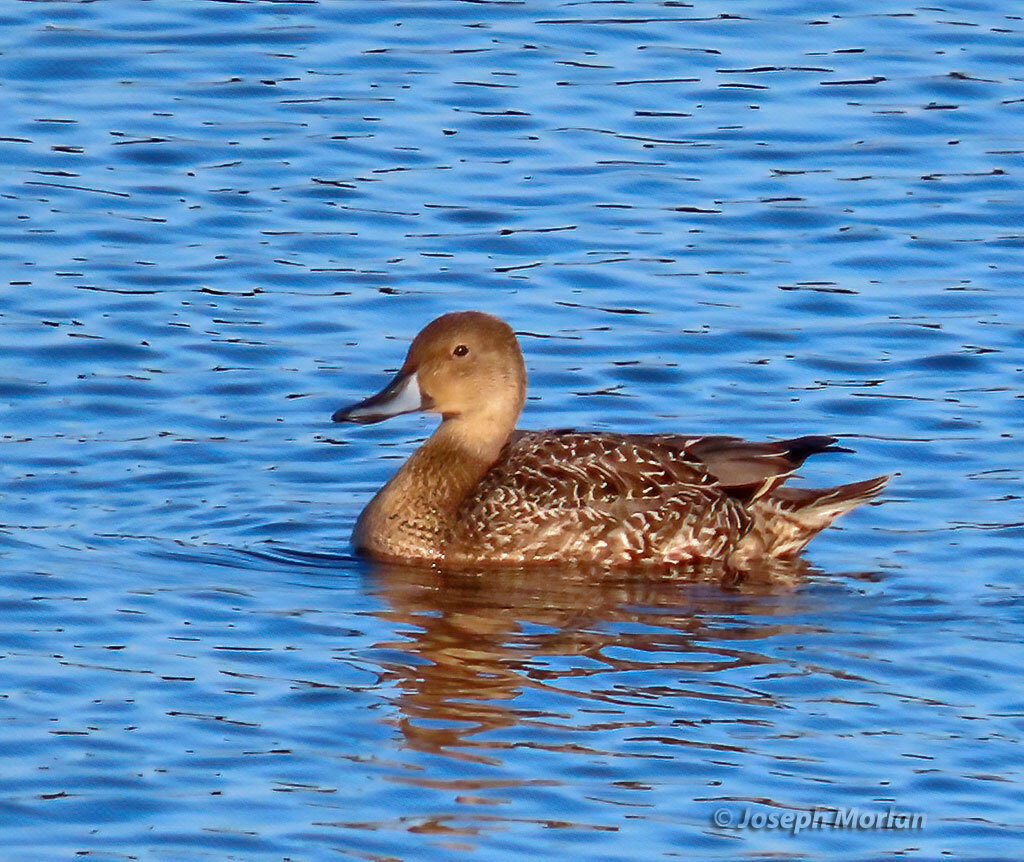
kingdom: Animalia
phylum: Chordata
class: Aves
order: Anseriformes
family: Anatidae
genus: Anas
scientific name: Anas acuta
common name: Northern pintail
